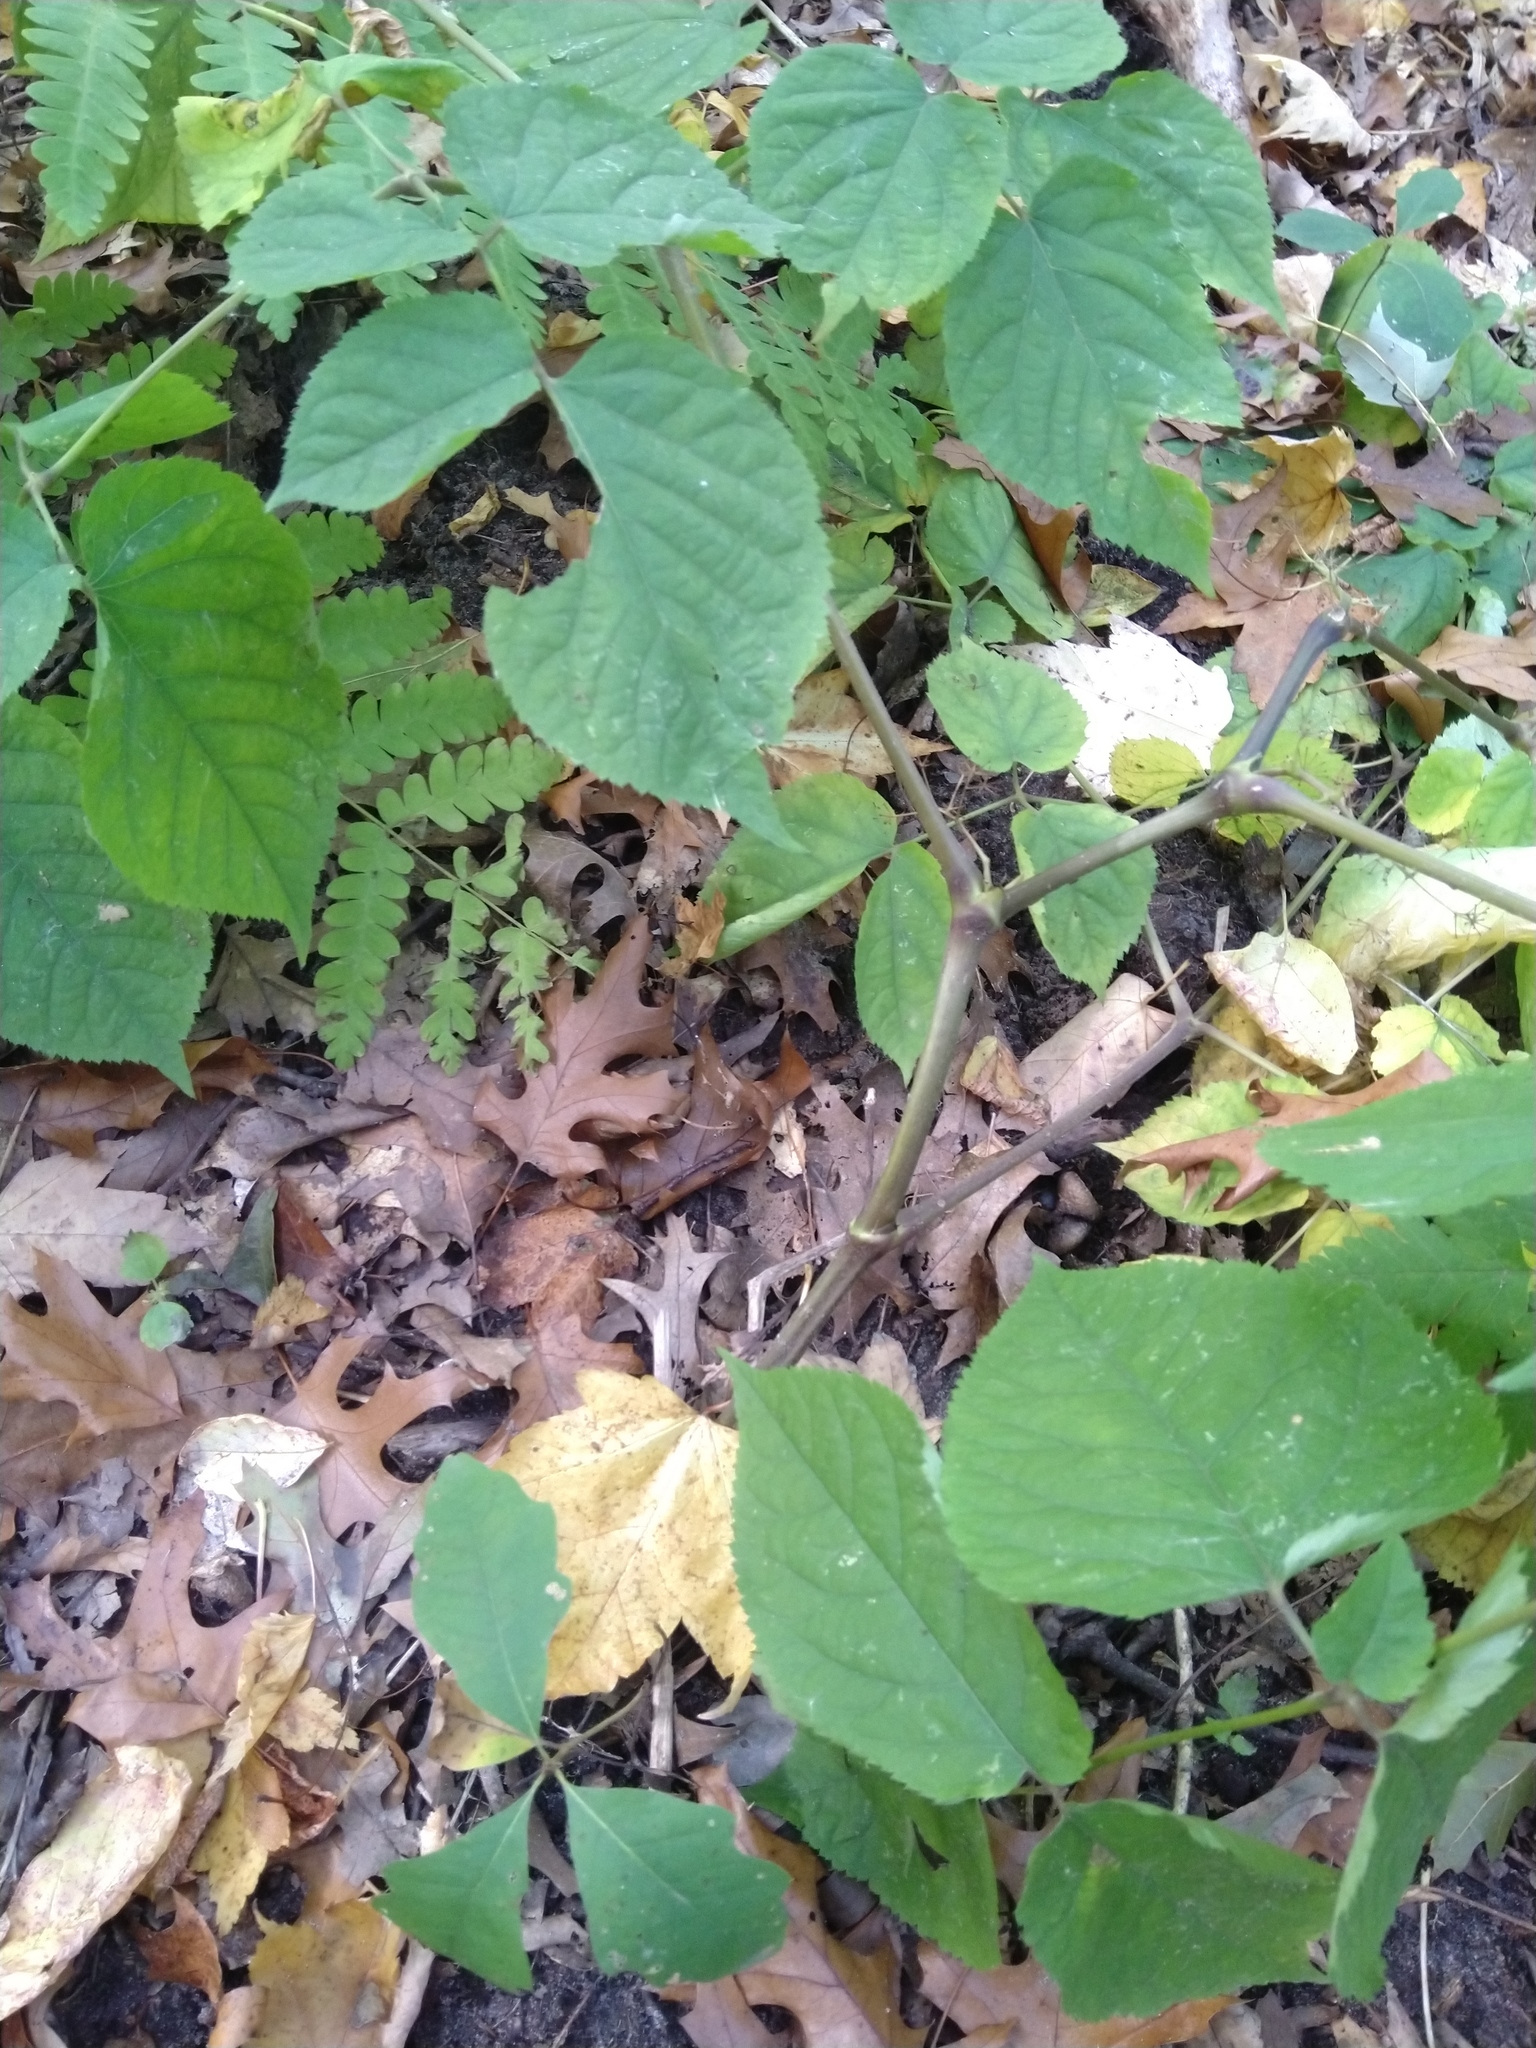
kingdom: Plantae
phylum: Tracheophyta
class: Magnoliopsida
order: Apiales
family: Araliaceae
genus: Aralia
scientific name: Aralia racemosa
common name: American-spikenard
